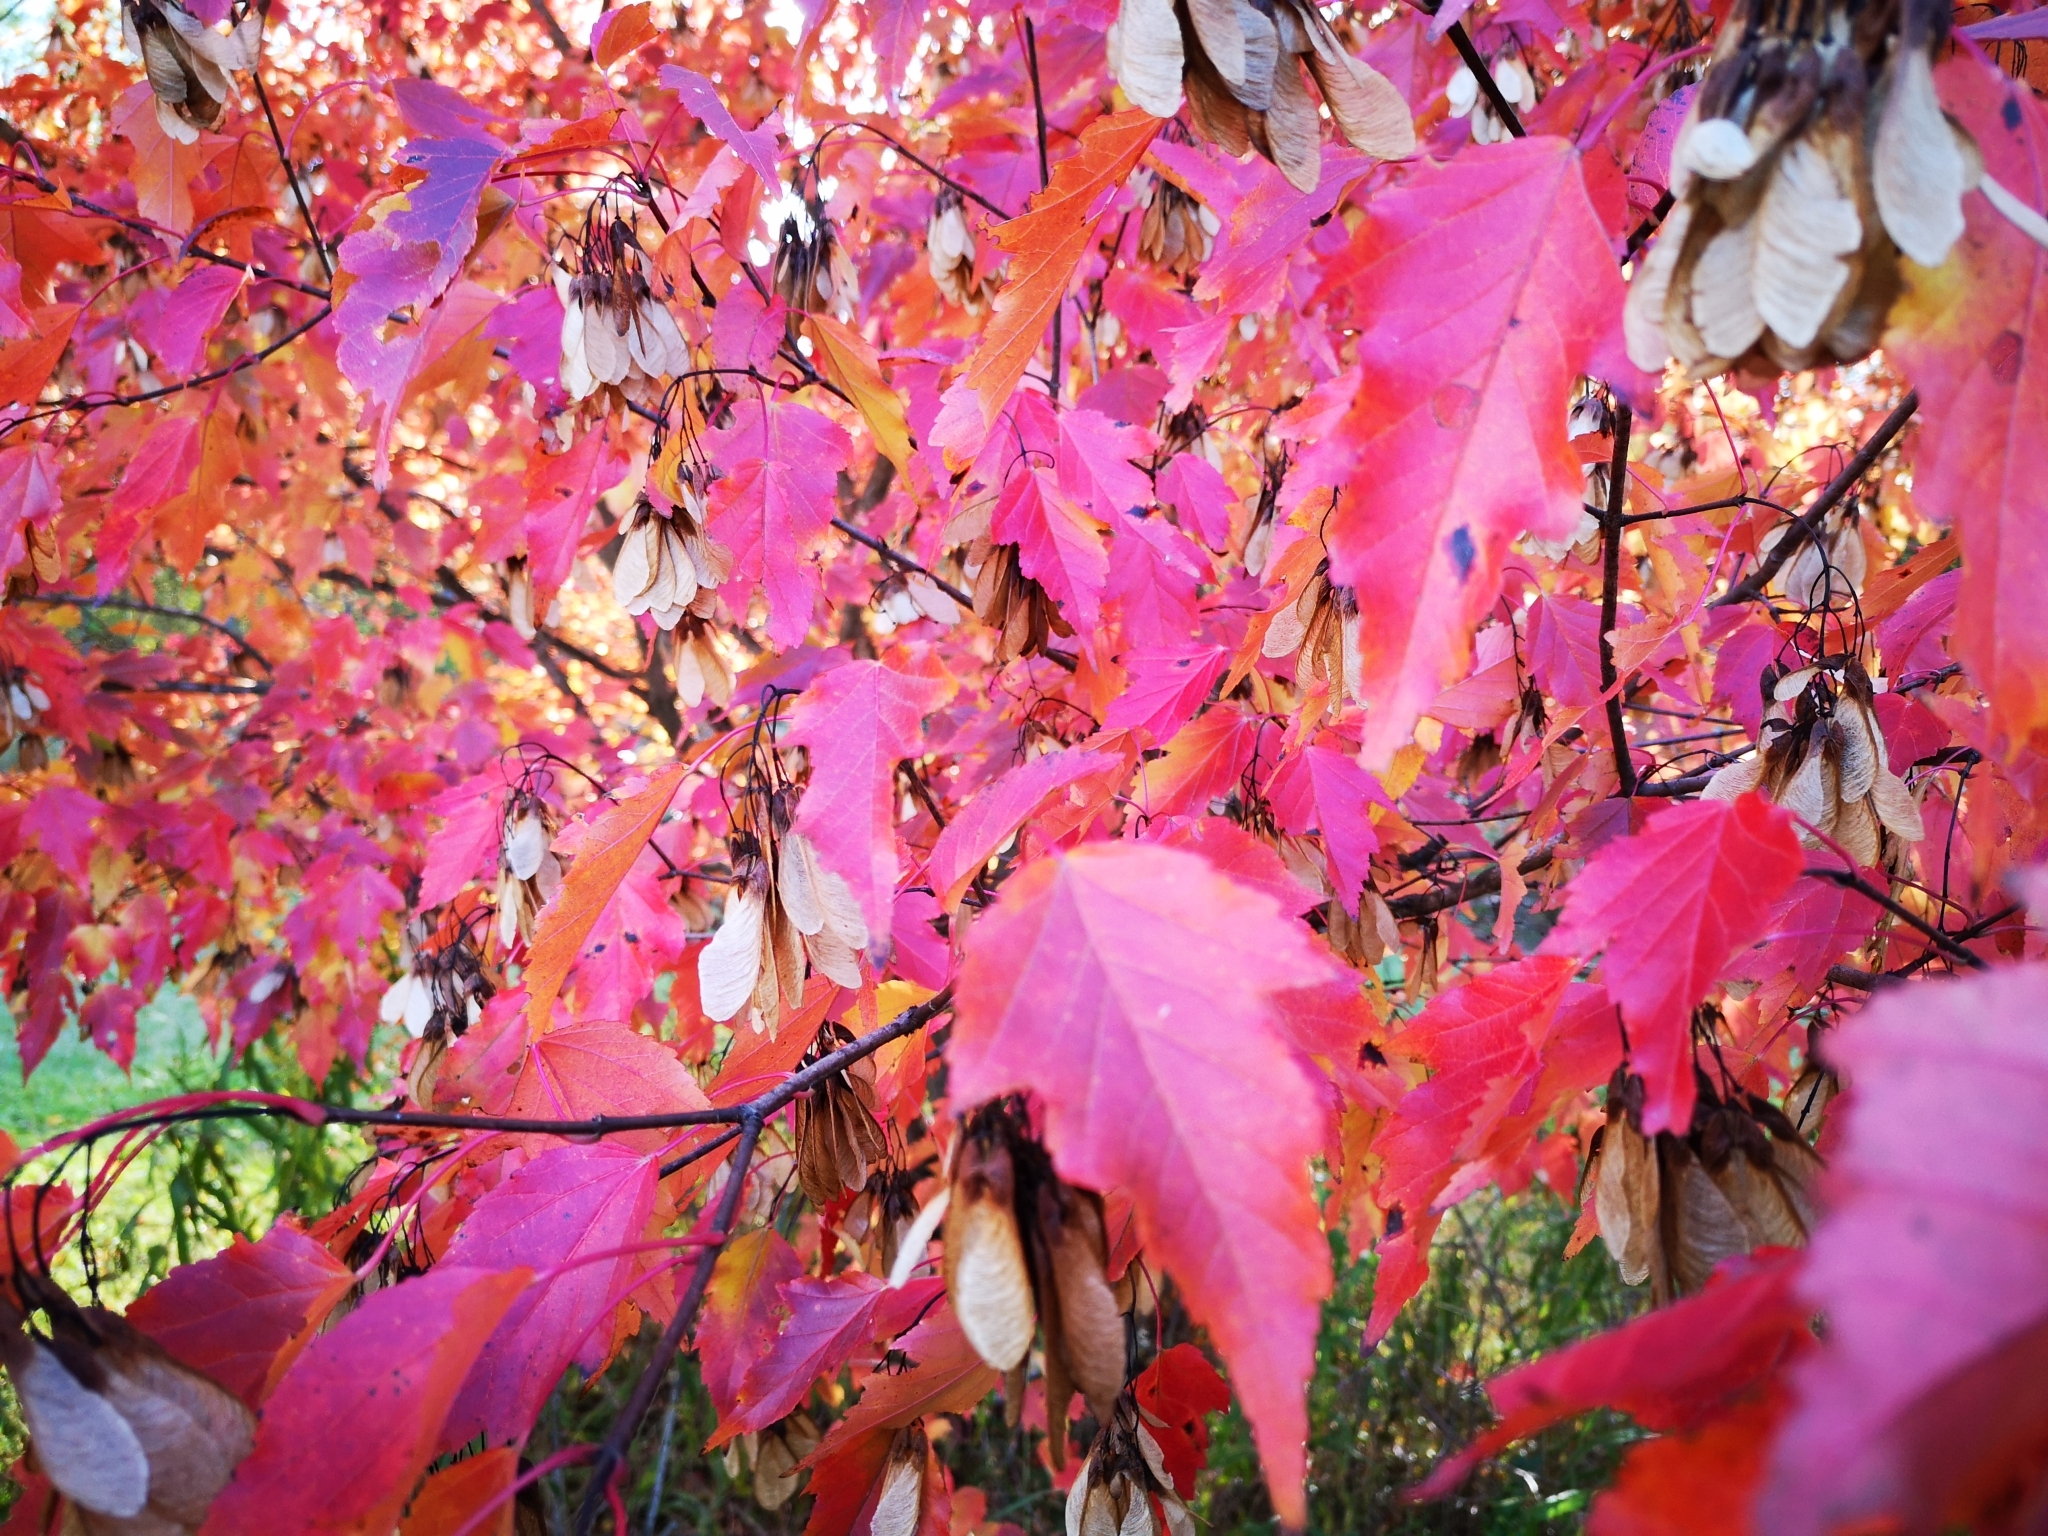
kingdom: Plantae
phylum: Tracheophyta
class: Magnoliopsida
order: Sapindales
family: Sapindaceae
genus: Acer
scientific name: Acer tataricum
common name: Tartar maple
